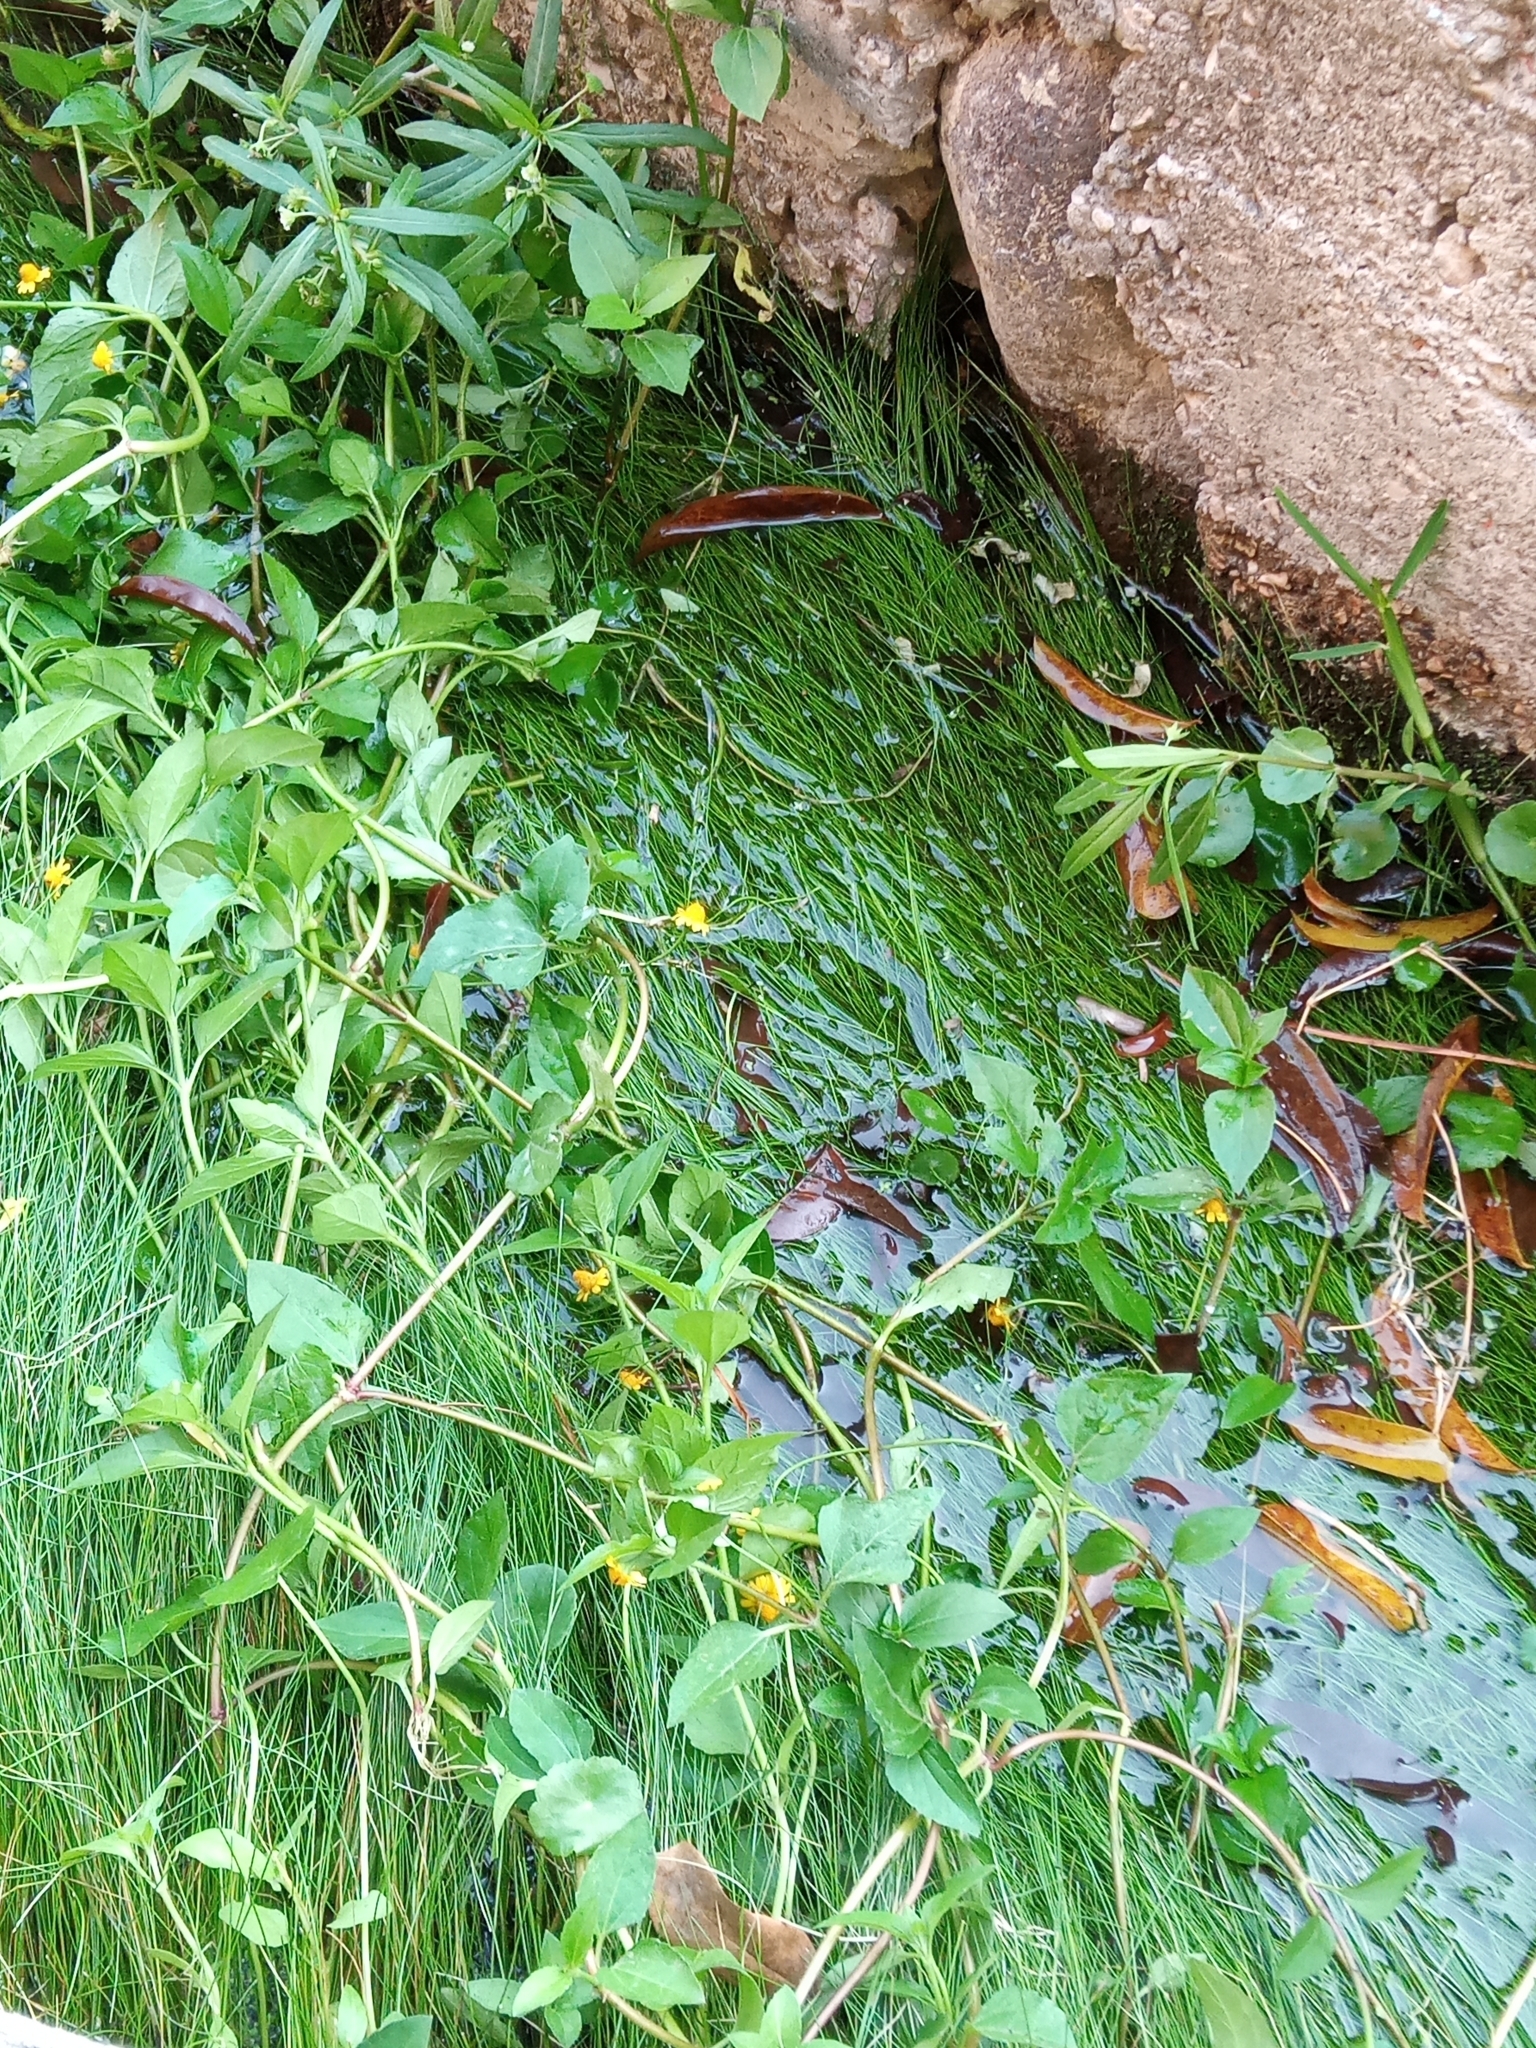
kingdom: Plantae
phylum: Tracheophyta
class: Magnoliopsida
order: Asterales
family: Asteraceae
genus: Acmella
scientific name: Acmella repens
